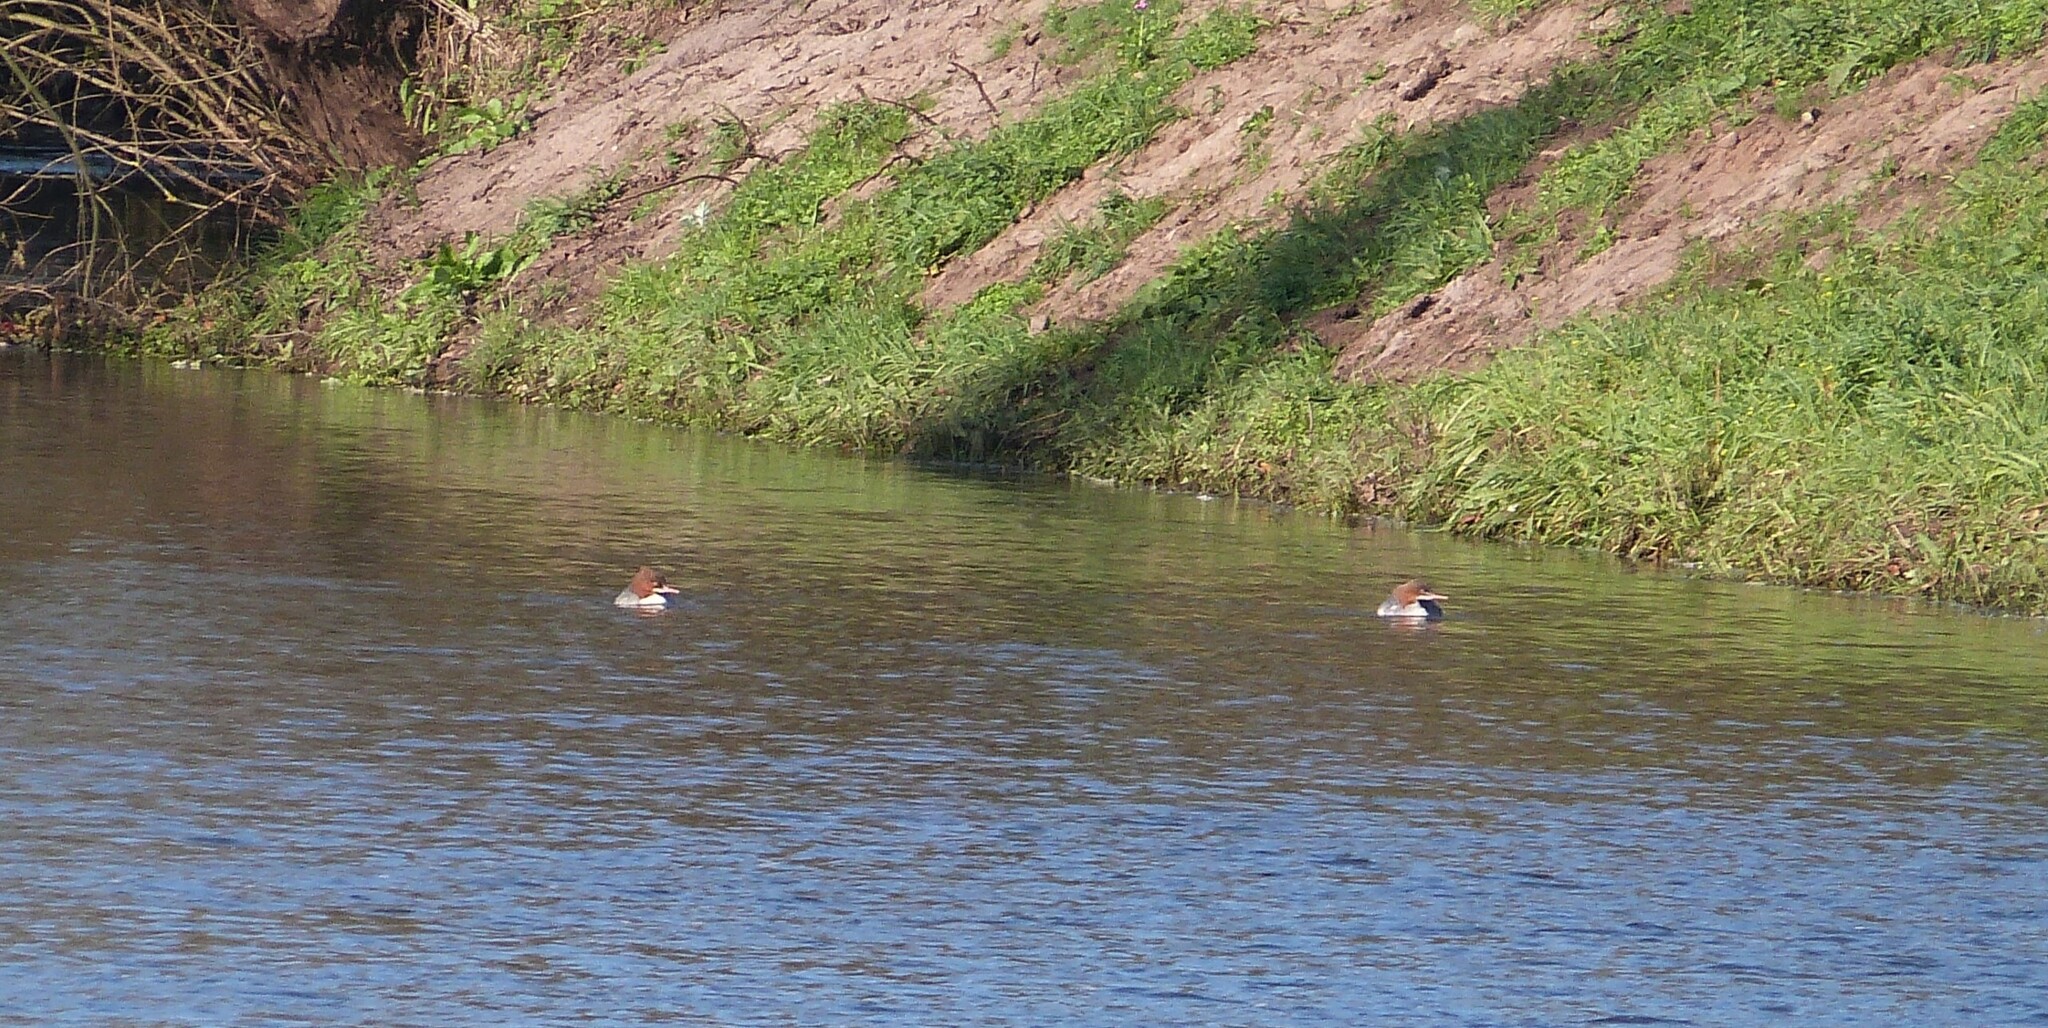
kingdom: Animalia
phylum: Chordata
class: Aves
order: Anseriformes
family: Anatidae
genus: Mergus
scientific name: Mergus merganser
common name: Common merganser
